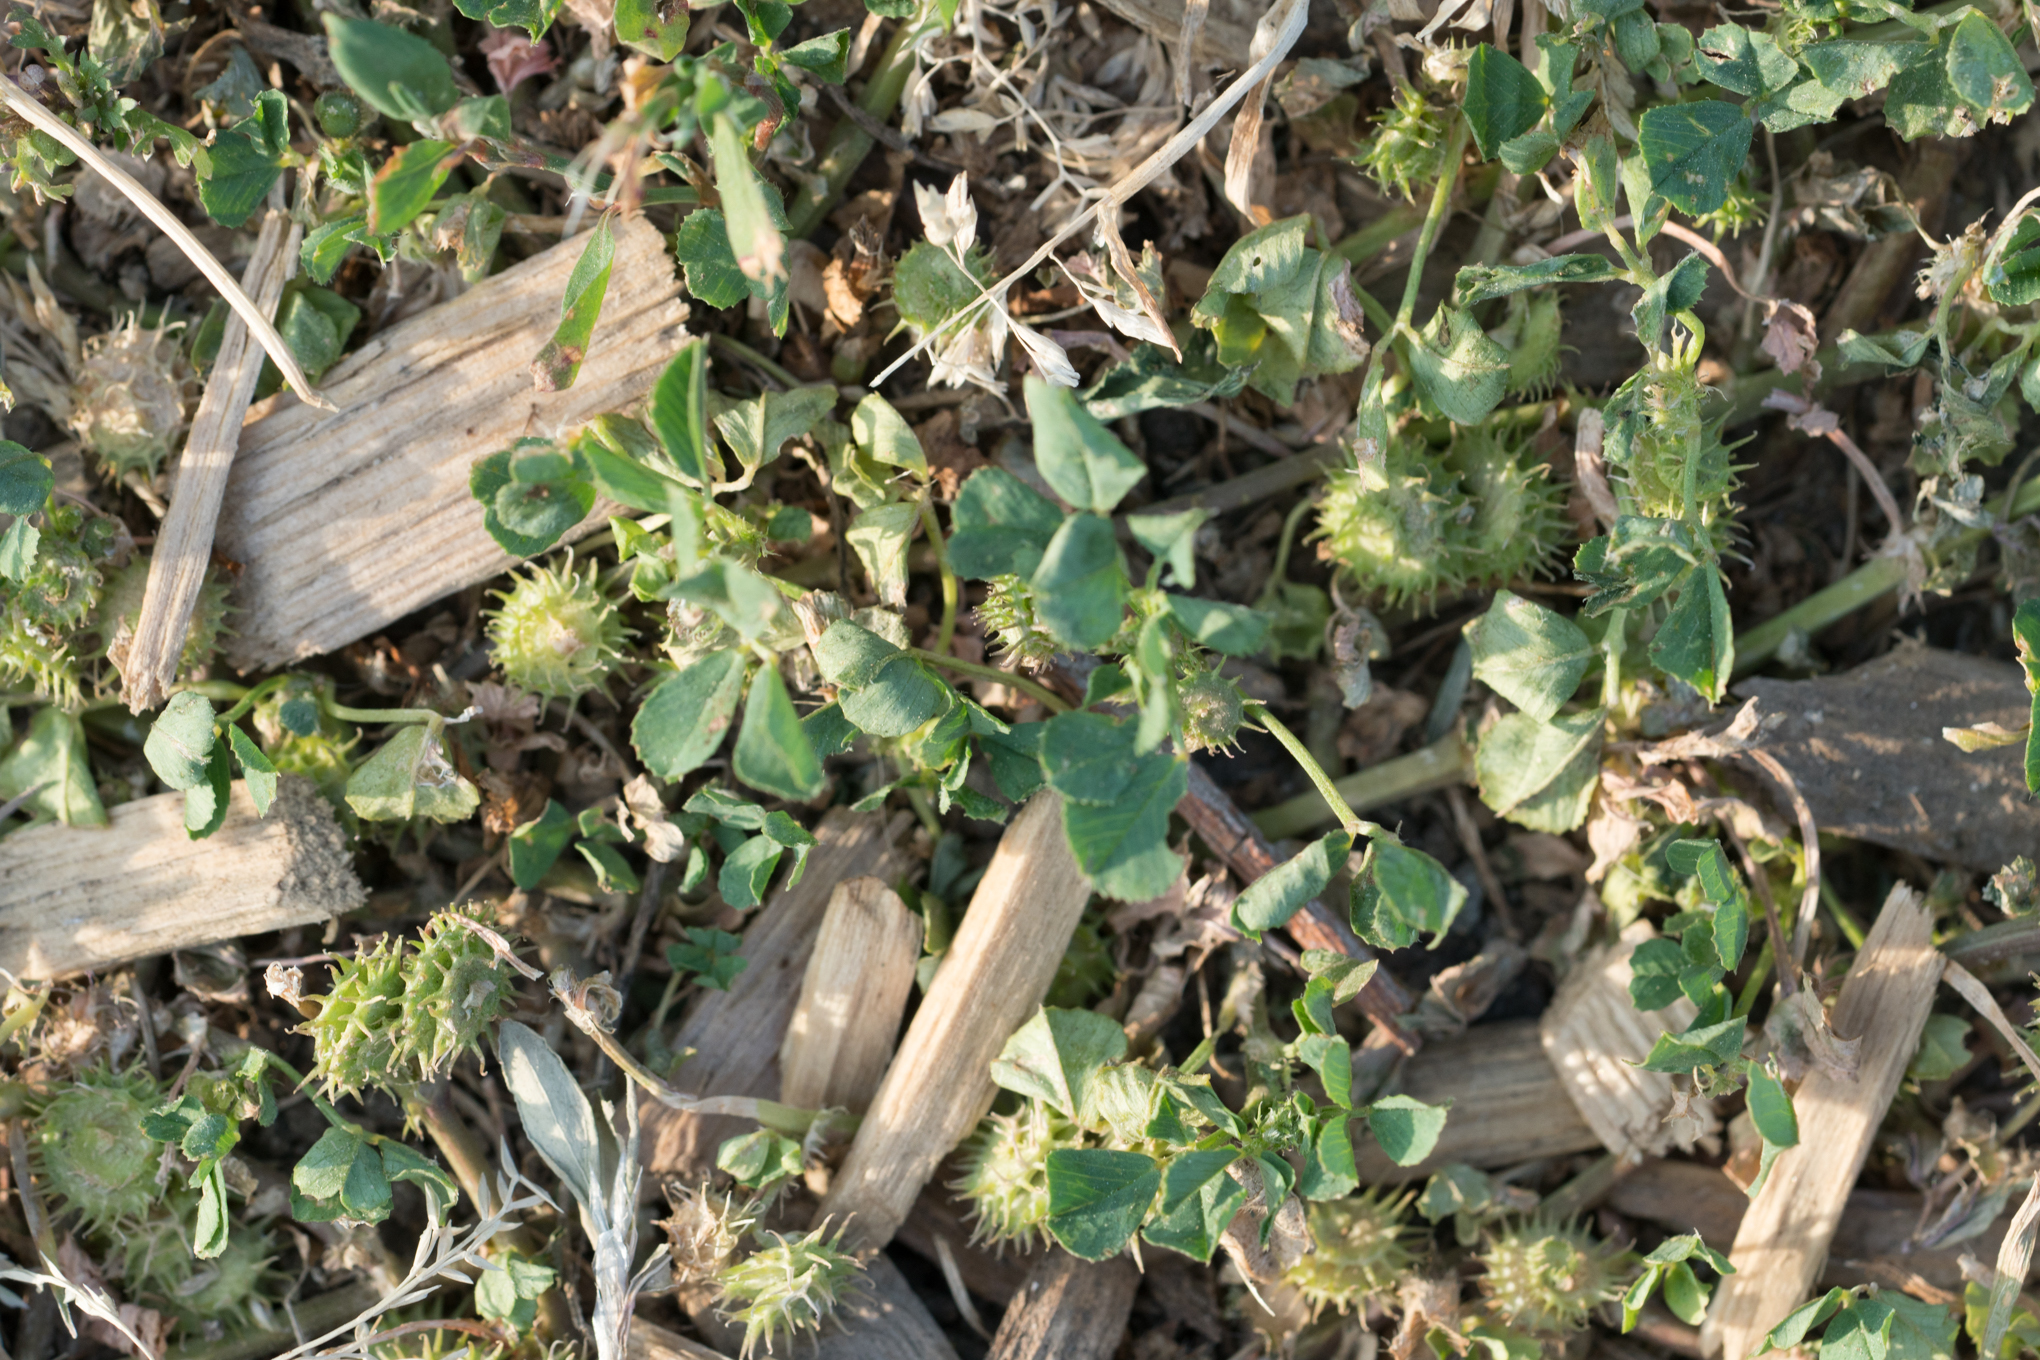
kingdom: Plantae
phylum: Tracheophyta
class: Magnoliopsida
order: Fabales
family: Fabaceae
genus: Medicago
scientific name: Medicago polymorpha
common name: Burclover
